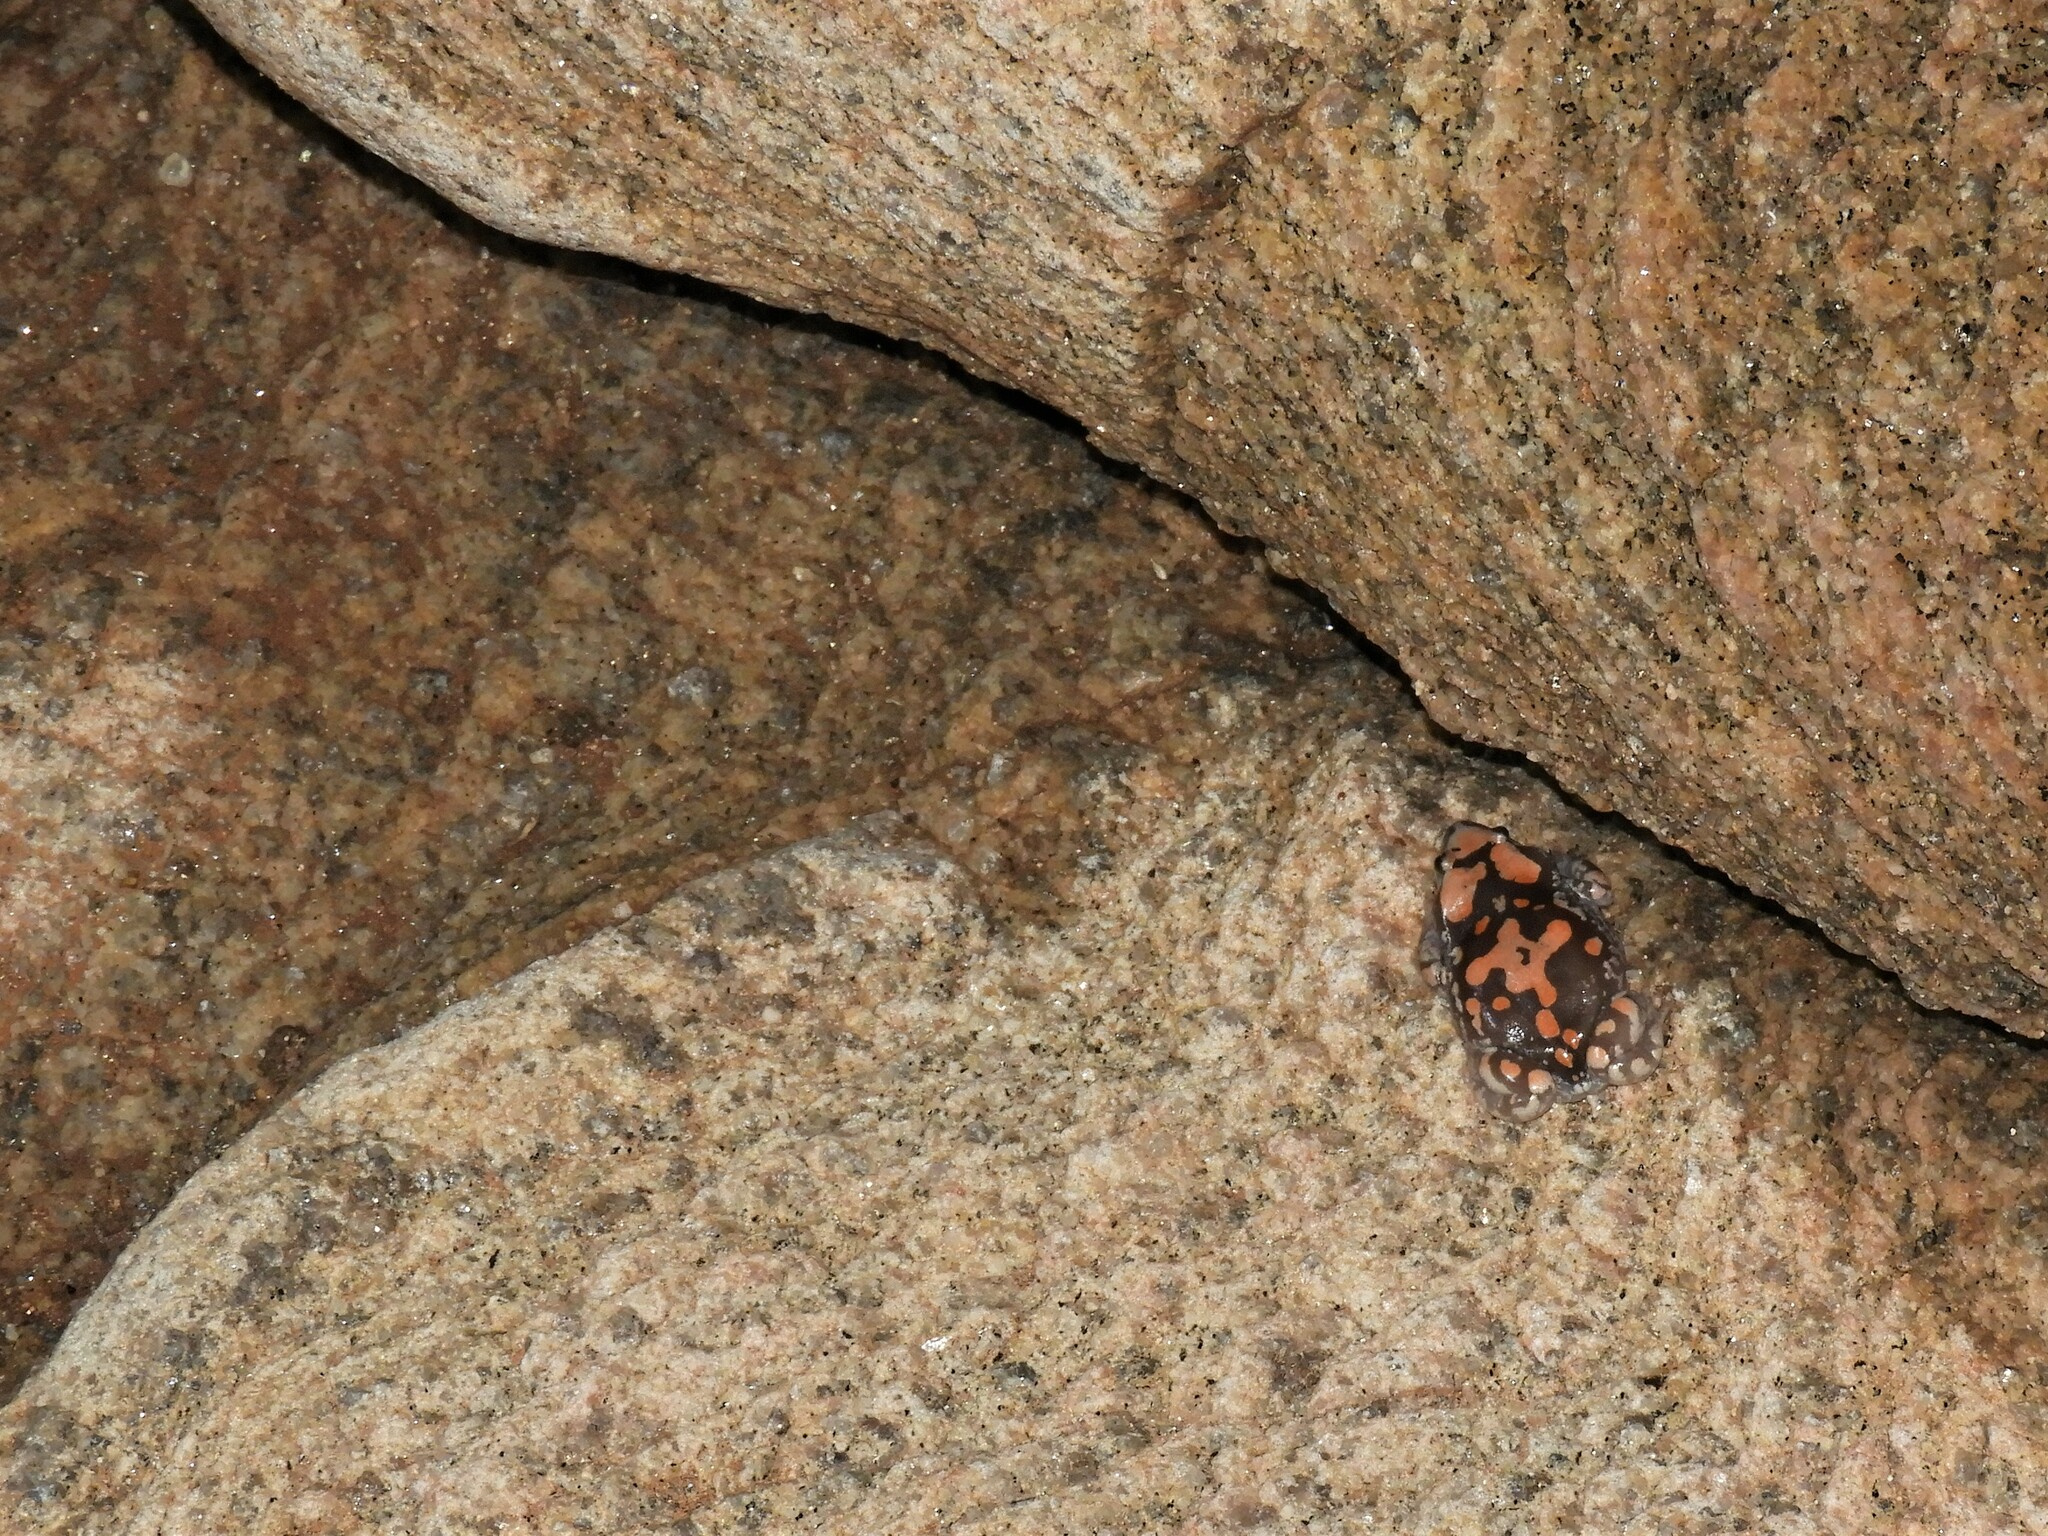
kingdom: Animalia
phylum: Chordata
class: Amphibia
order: Anura
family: Microhylidae
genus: Phrynomantis
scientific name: Phrynomantis annectens
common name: Marbled rubber frog
